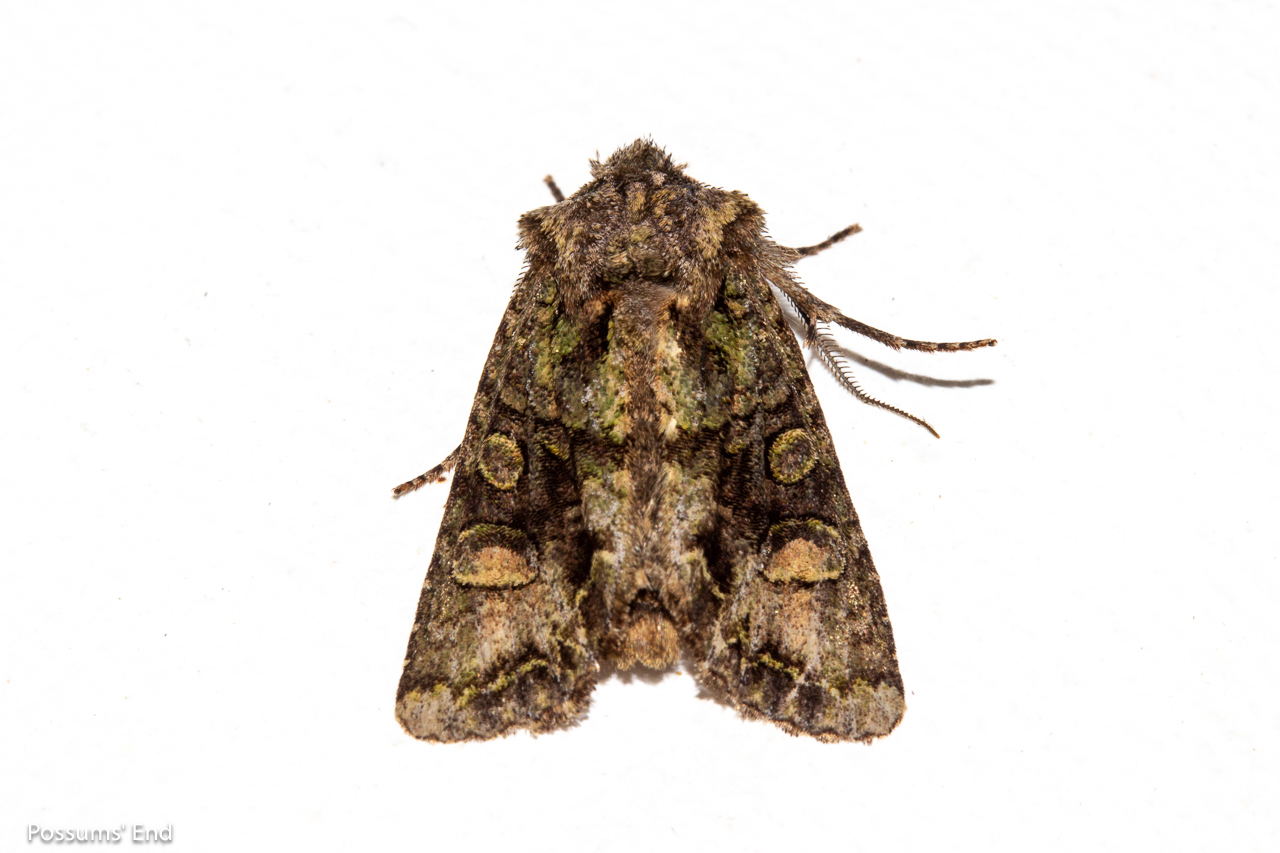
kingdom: Animalia
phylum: Arthropoda
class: Insecta
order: Lepidoptera
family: Noctuidae
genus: Ichneutica
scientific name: Ichneutica skelloni
